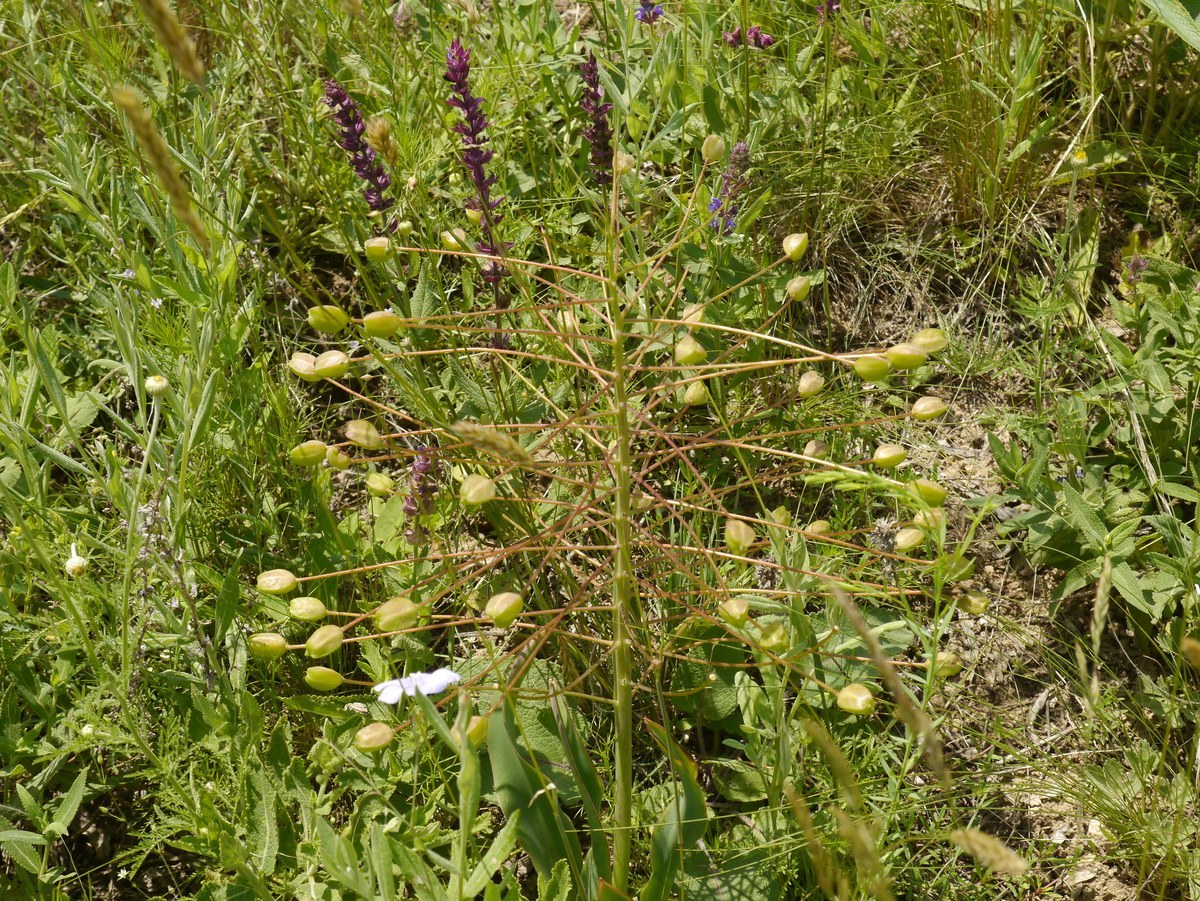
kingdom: Plantae
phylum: Tracheophyta
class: Liliopsida
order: Asparagales
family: Asparagaceae
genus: Bellevalia
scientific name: Bellevalia speciosa
